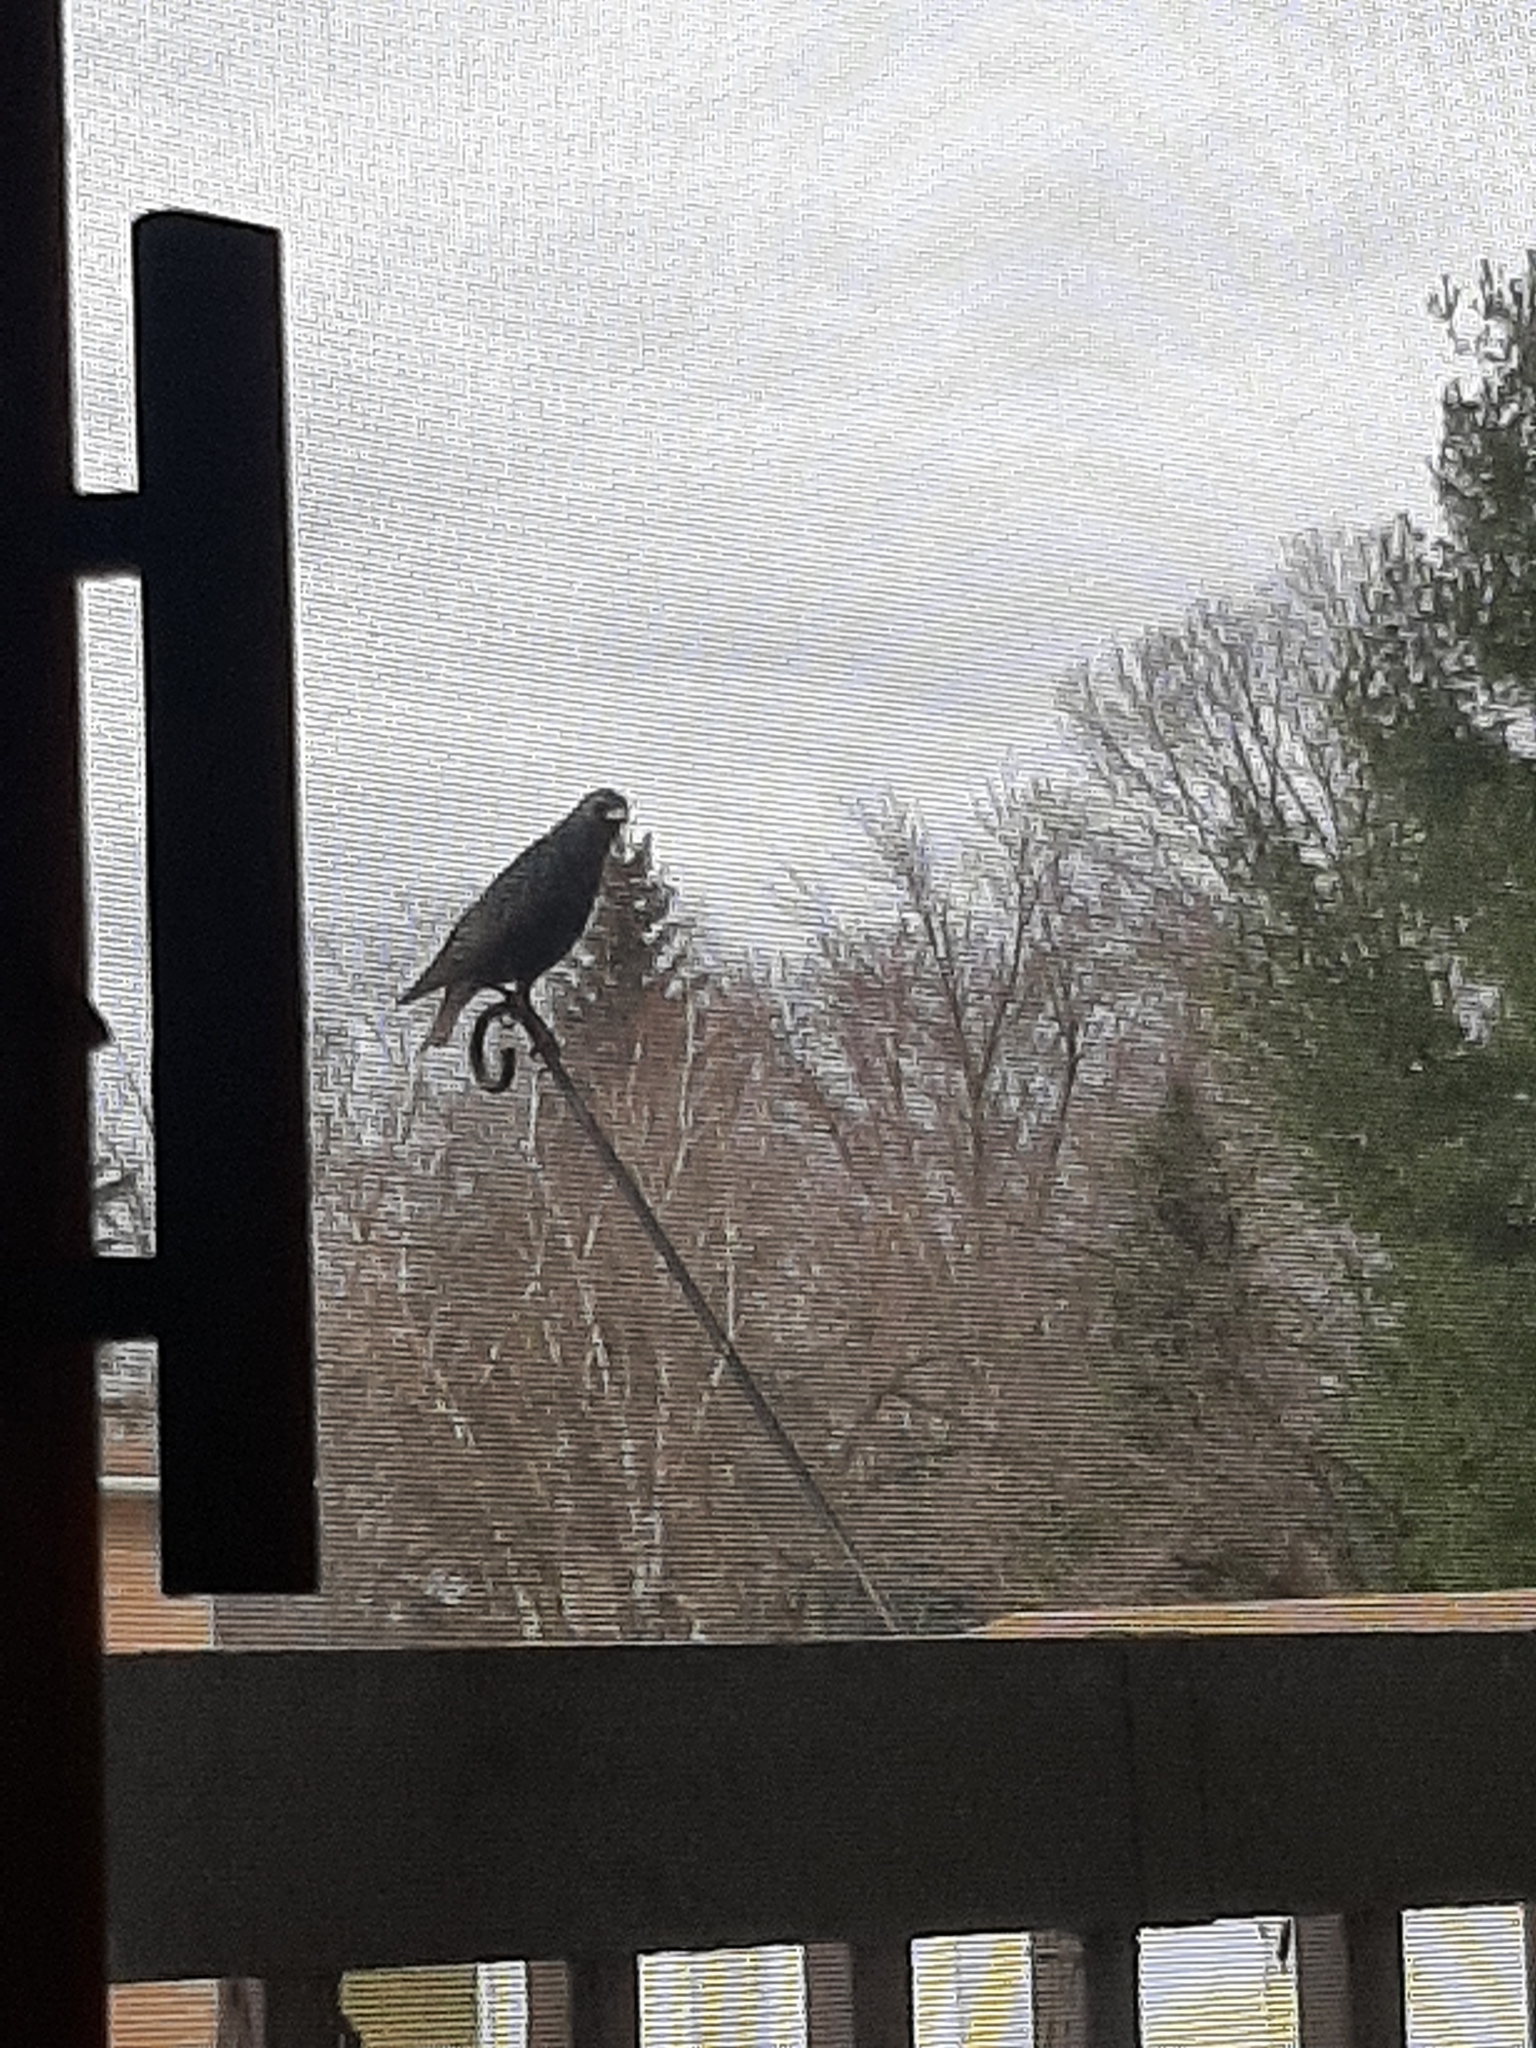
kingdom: Animalia
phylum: Chordata
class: Aves
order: Passeriformes
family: Sturnidae
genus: Sturnus
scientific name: Sturnus vulgaris
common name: Common starling
